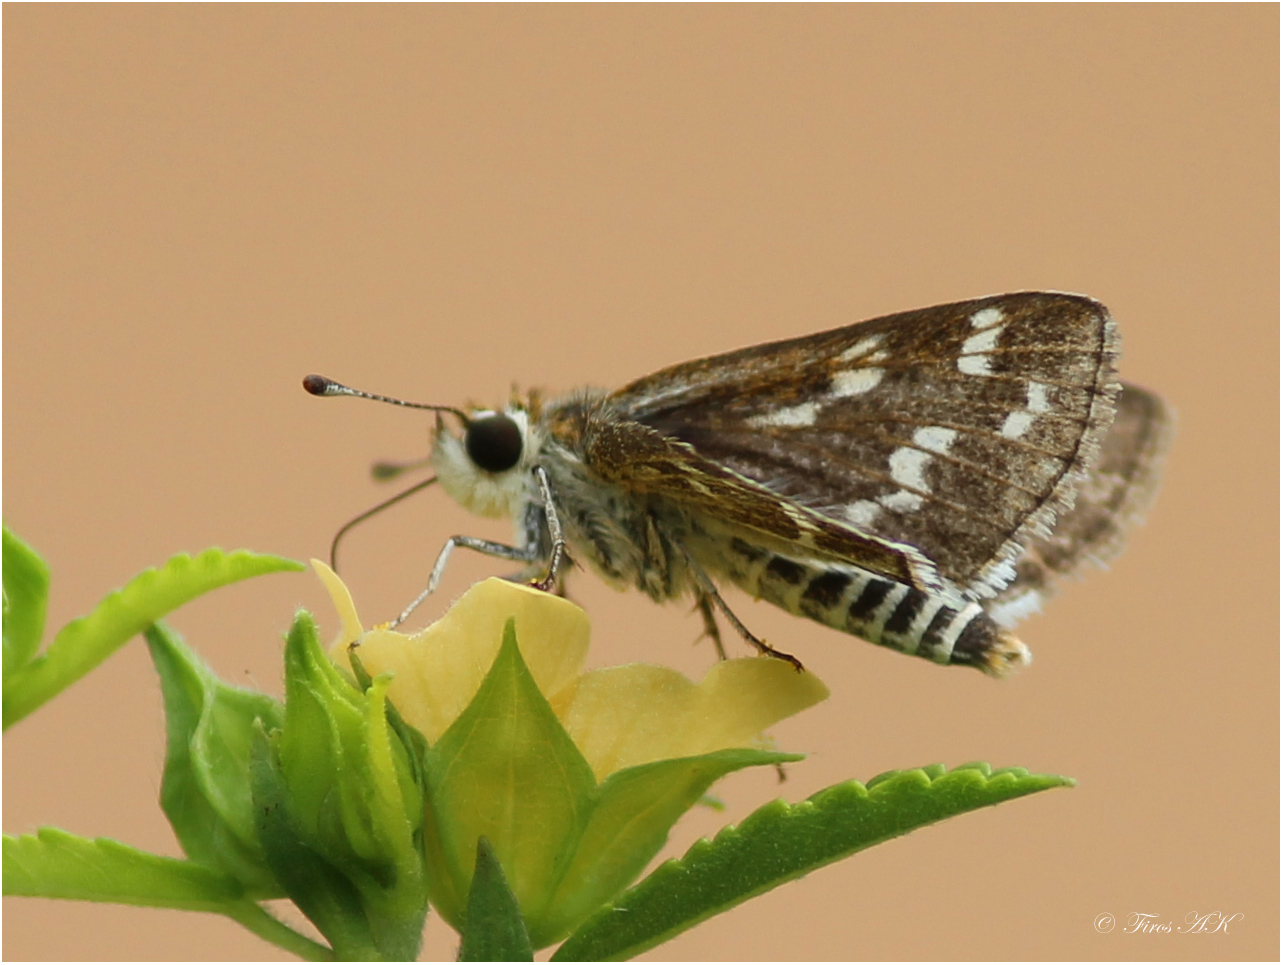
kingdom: Animalia
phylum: Arthropoda
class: Insecta
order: Lepidoptera
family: Hesperiidae
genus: Taractrocera
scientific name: Taractrocera maevius
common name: Common grass-dart
